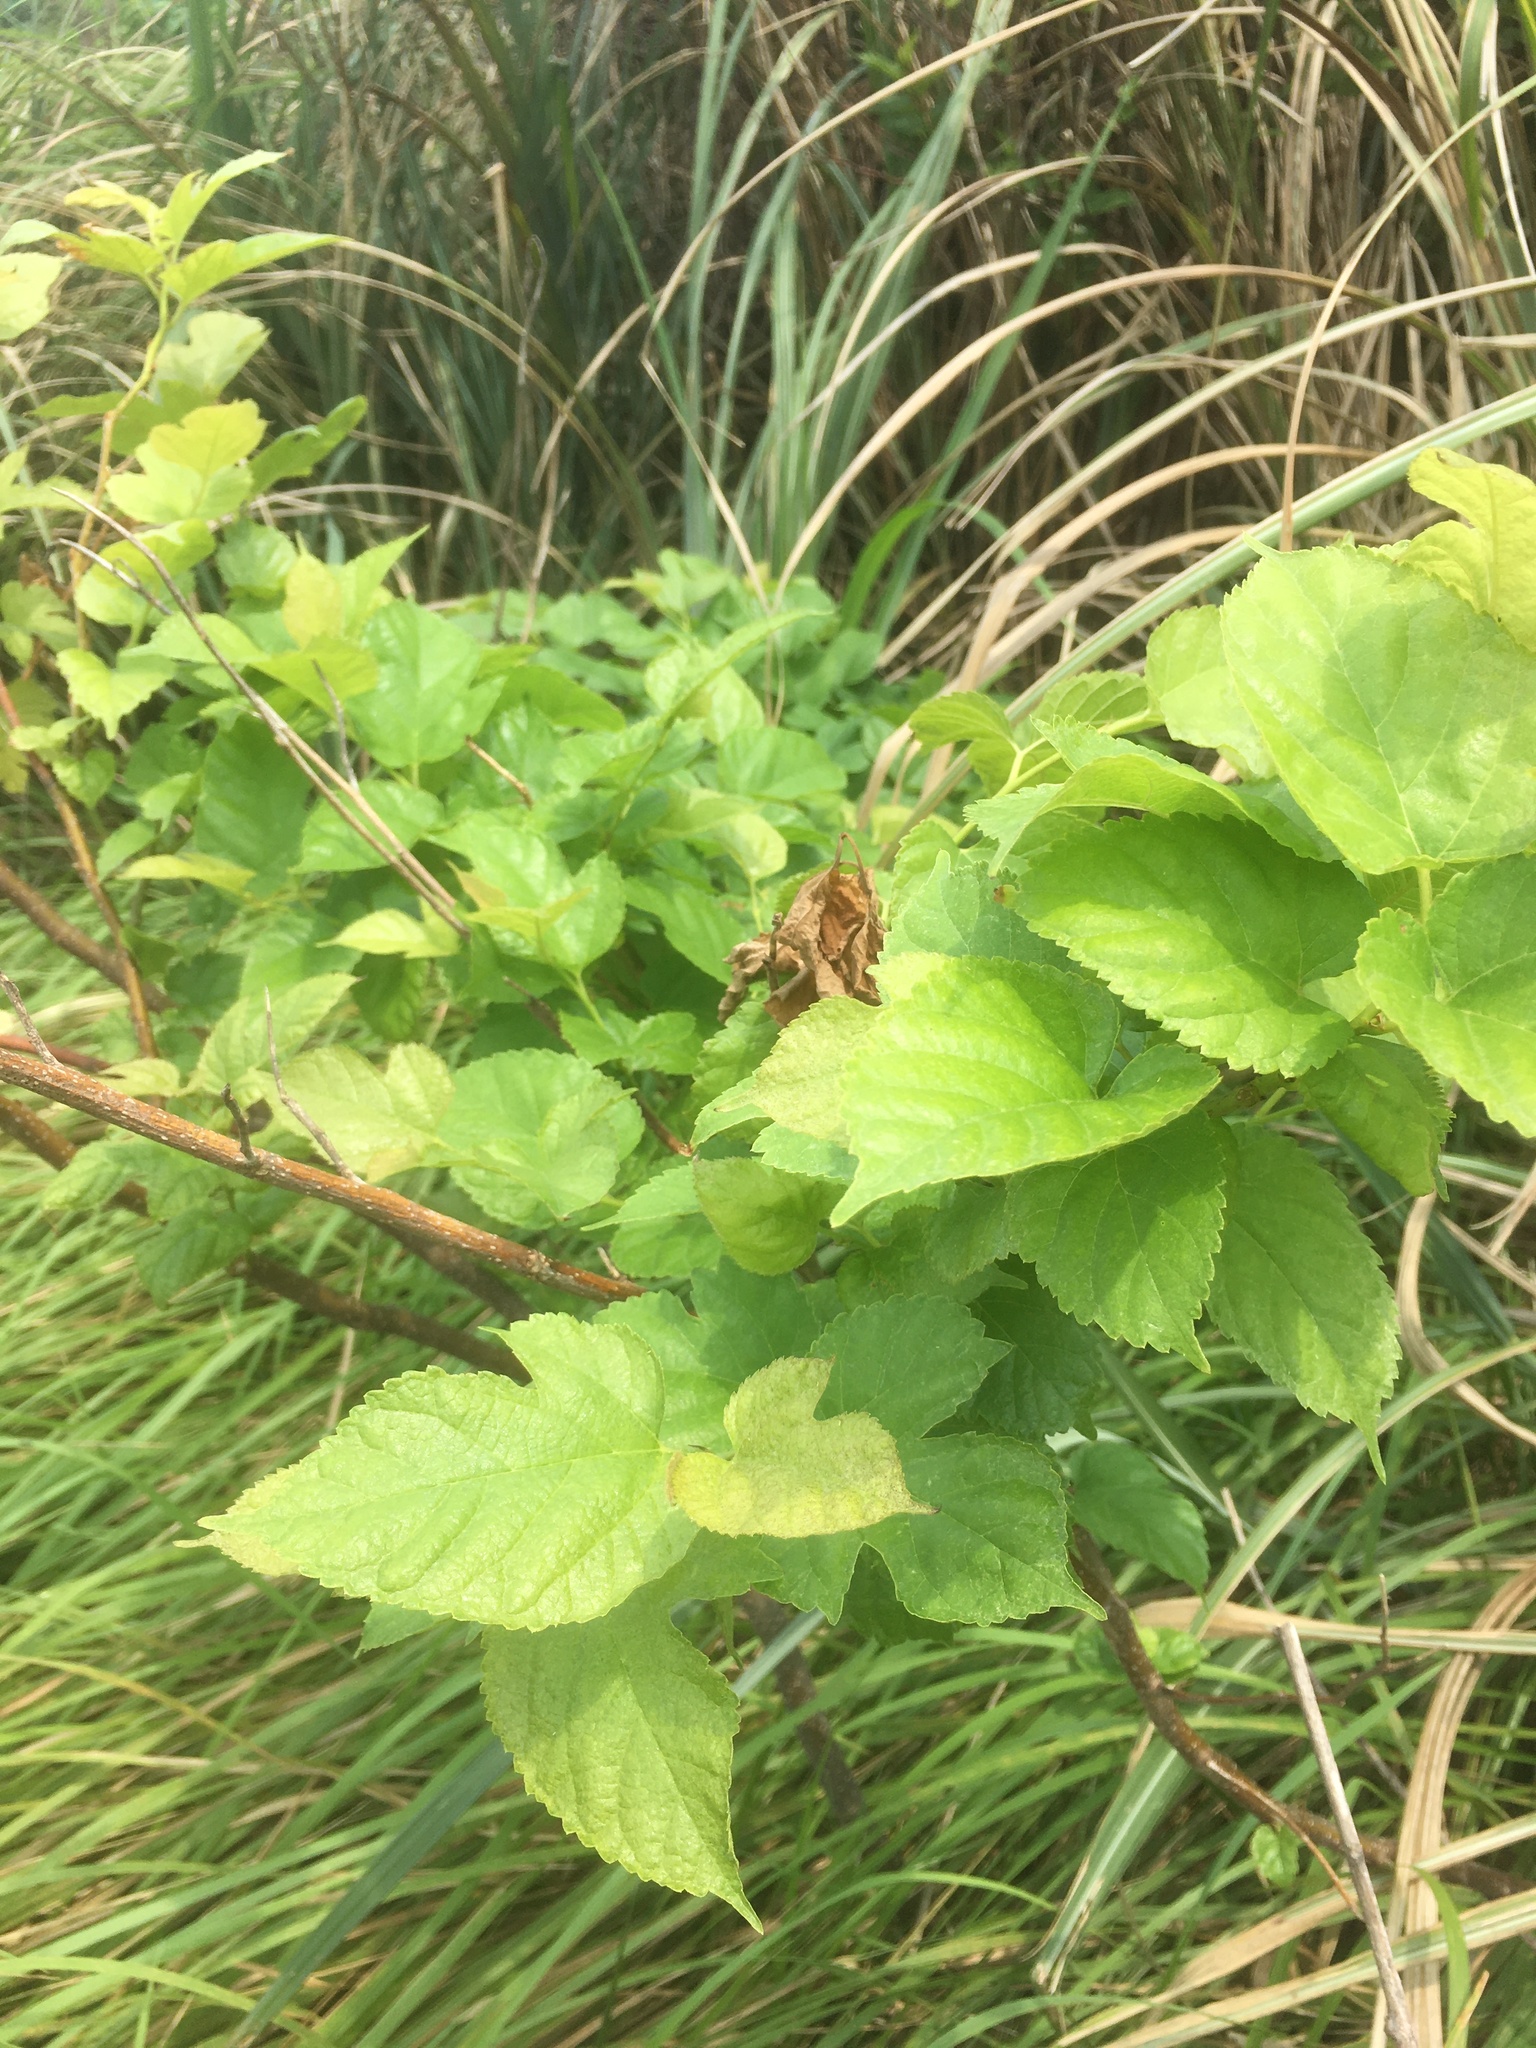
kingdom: Plantae
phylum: Tracheophyta
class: Magnoliopsida
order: Rosales
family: Moraceae
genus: Morus
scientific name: Morus indica
